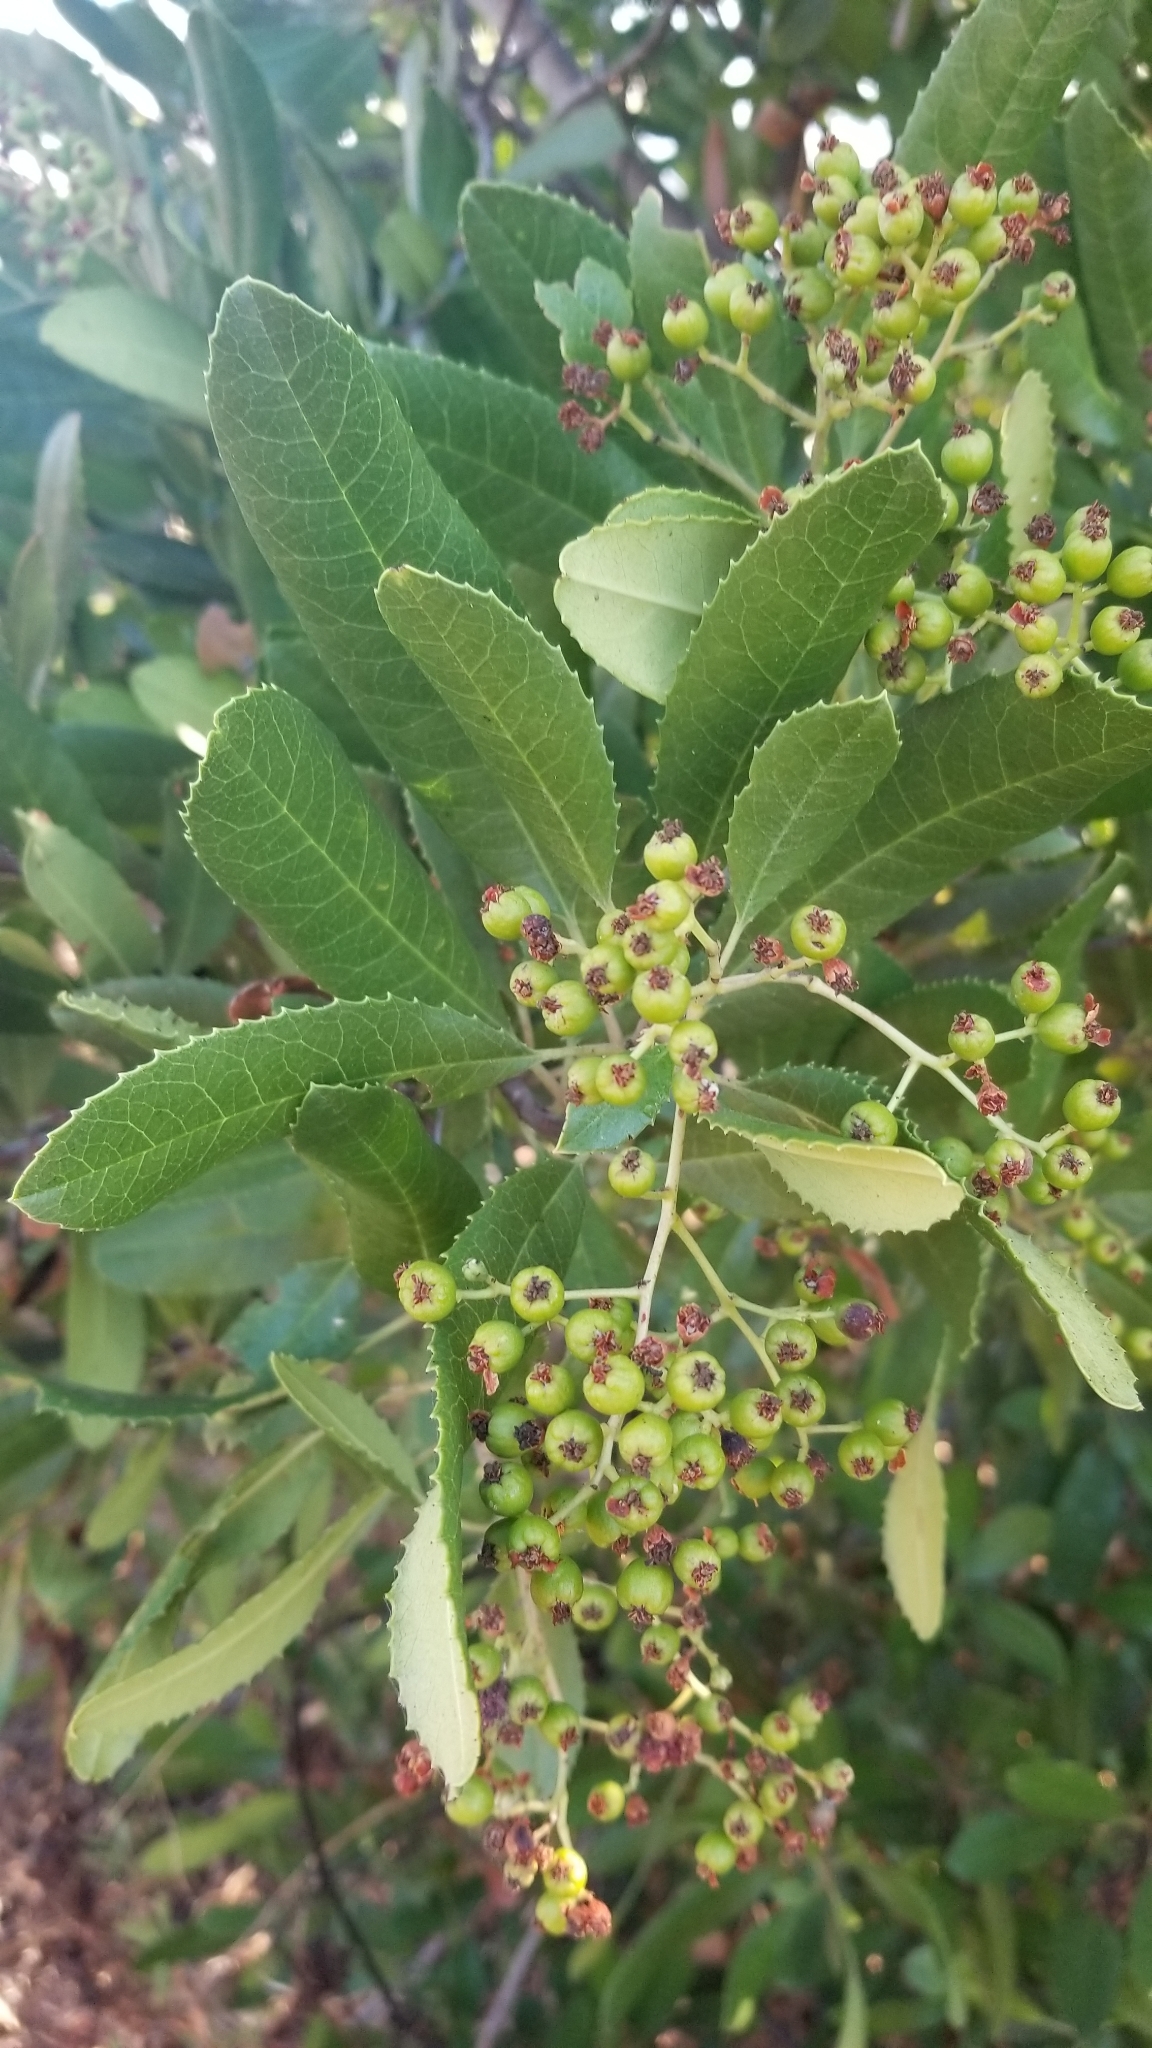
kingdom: Plantae
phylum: Tracheophyta
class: Magnoliopsida
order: Rosales
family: Rosaceae
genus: Heteromeles
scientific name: Heteromeles arbutifolia
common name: California-holly
